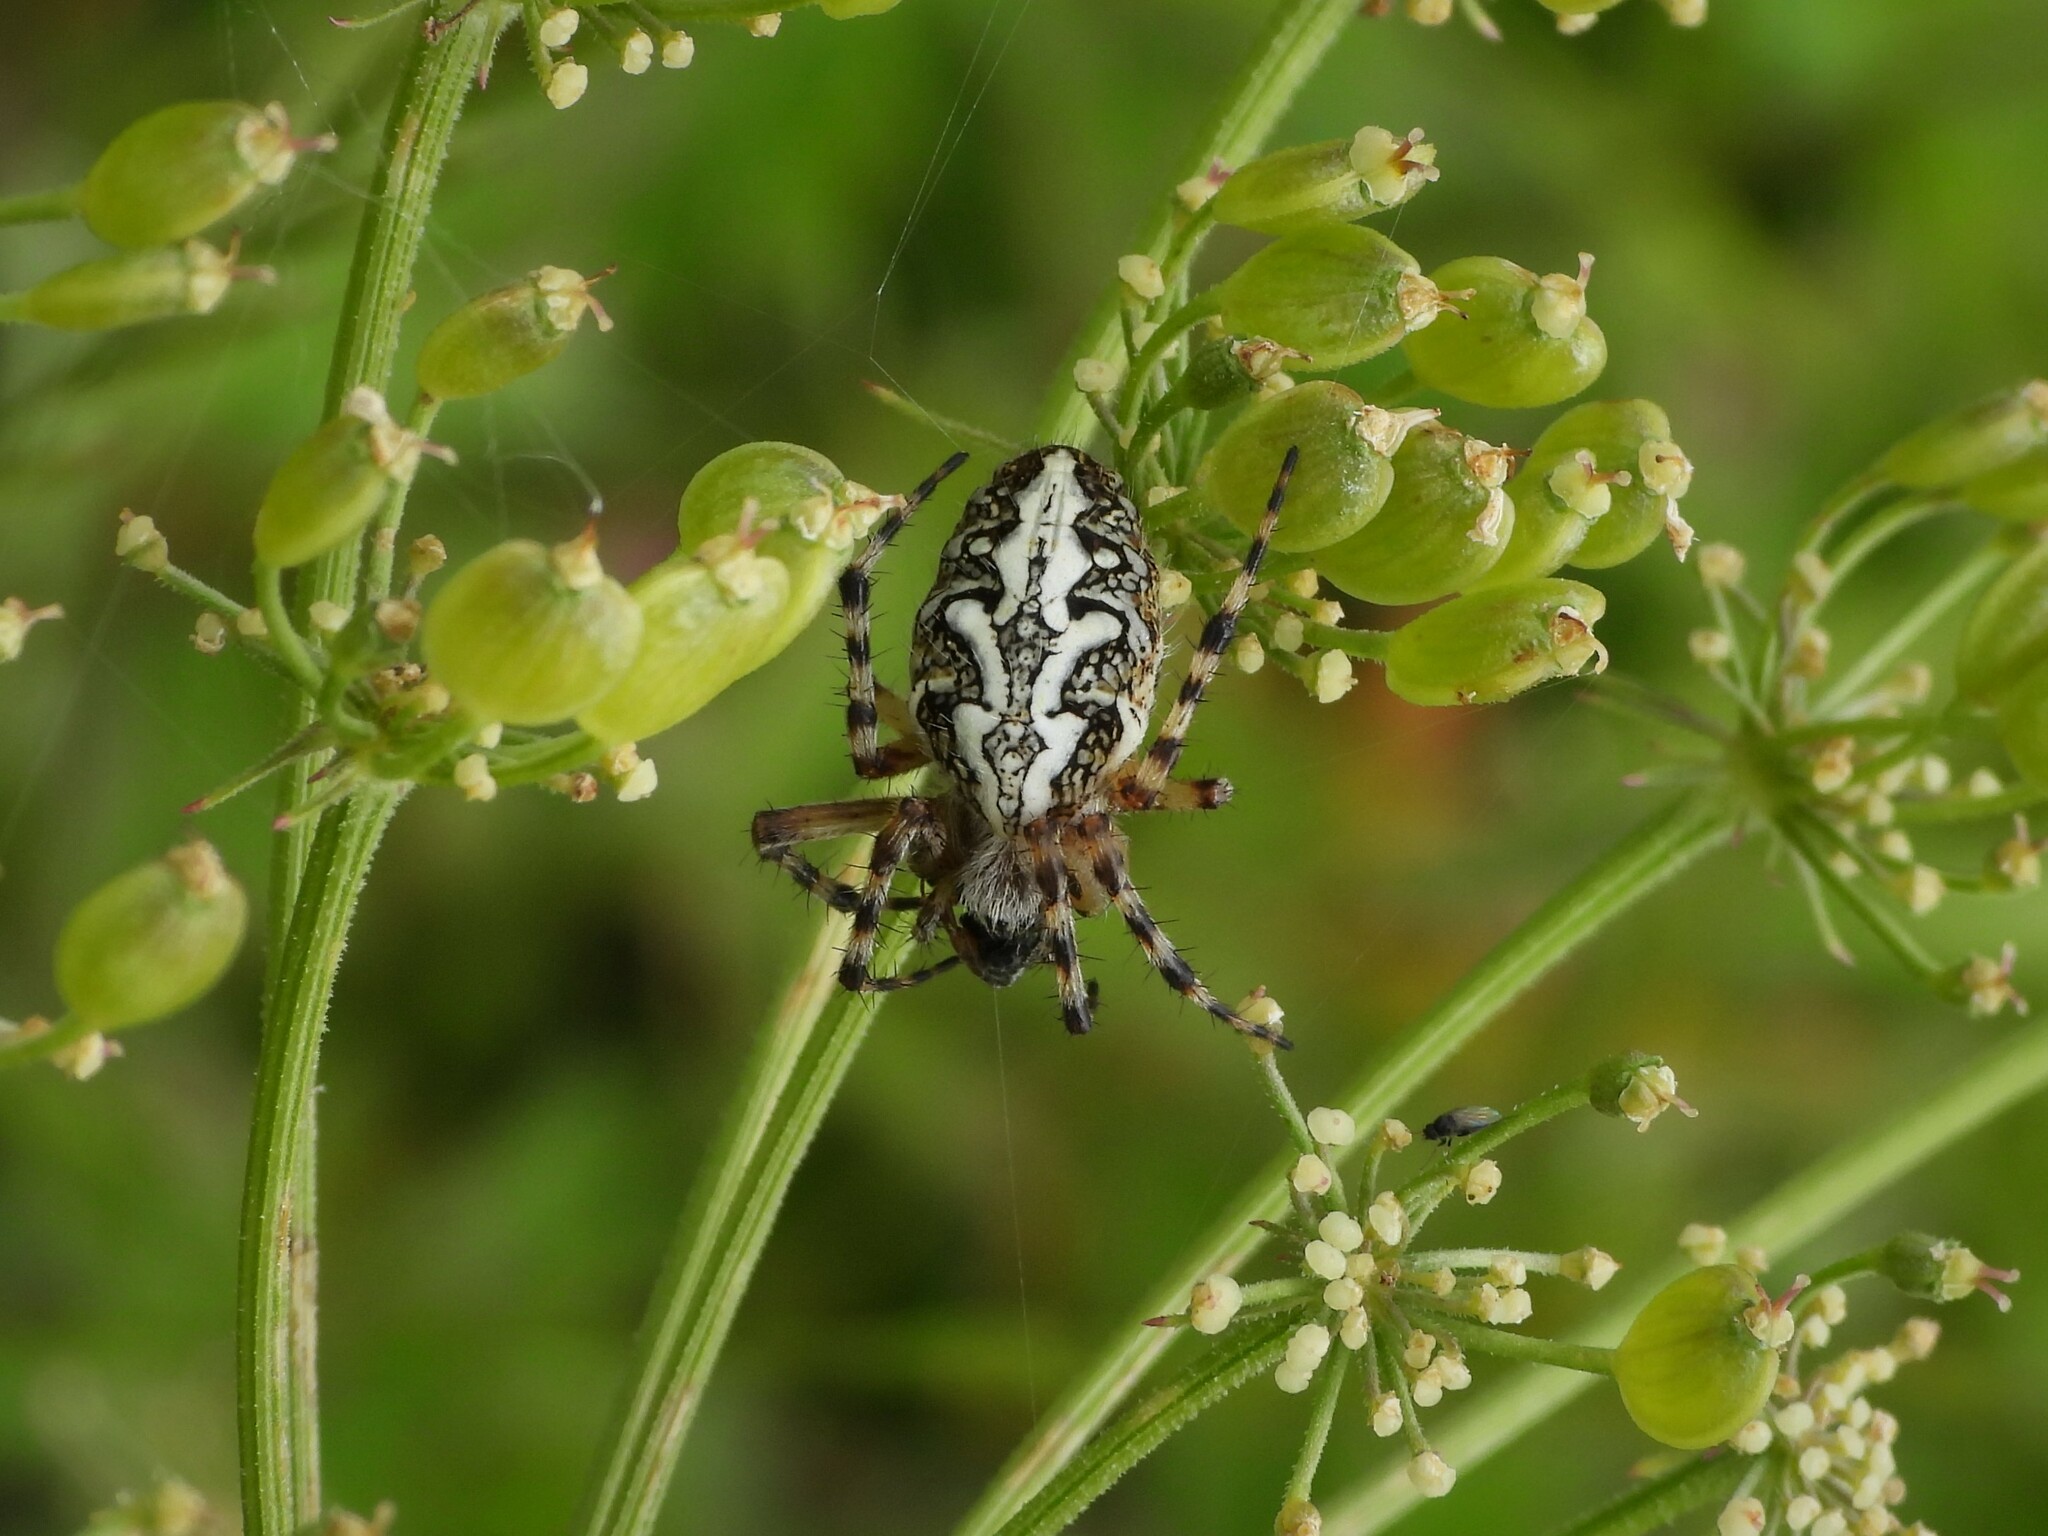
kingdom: Animalia
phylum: Arthropoda
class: Arachnida
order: Araneae
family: Araneidae
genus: Aculepeira
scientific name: Aculepeira ceropegia
